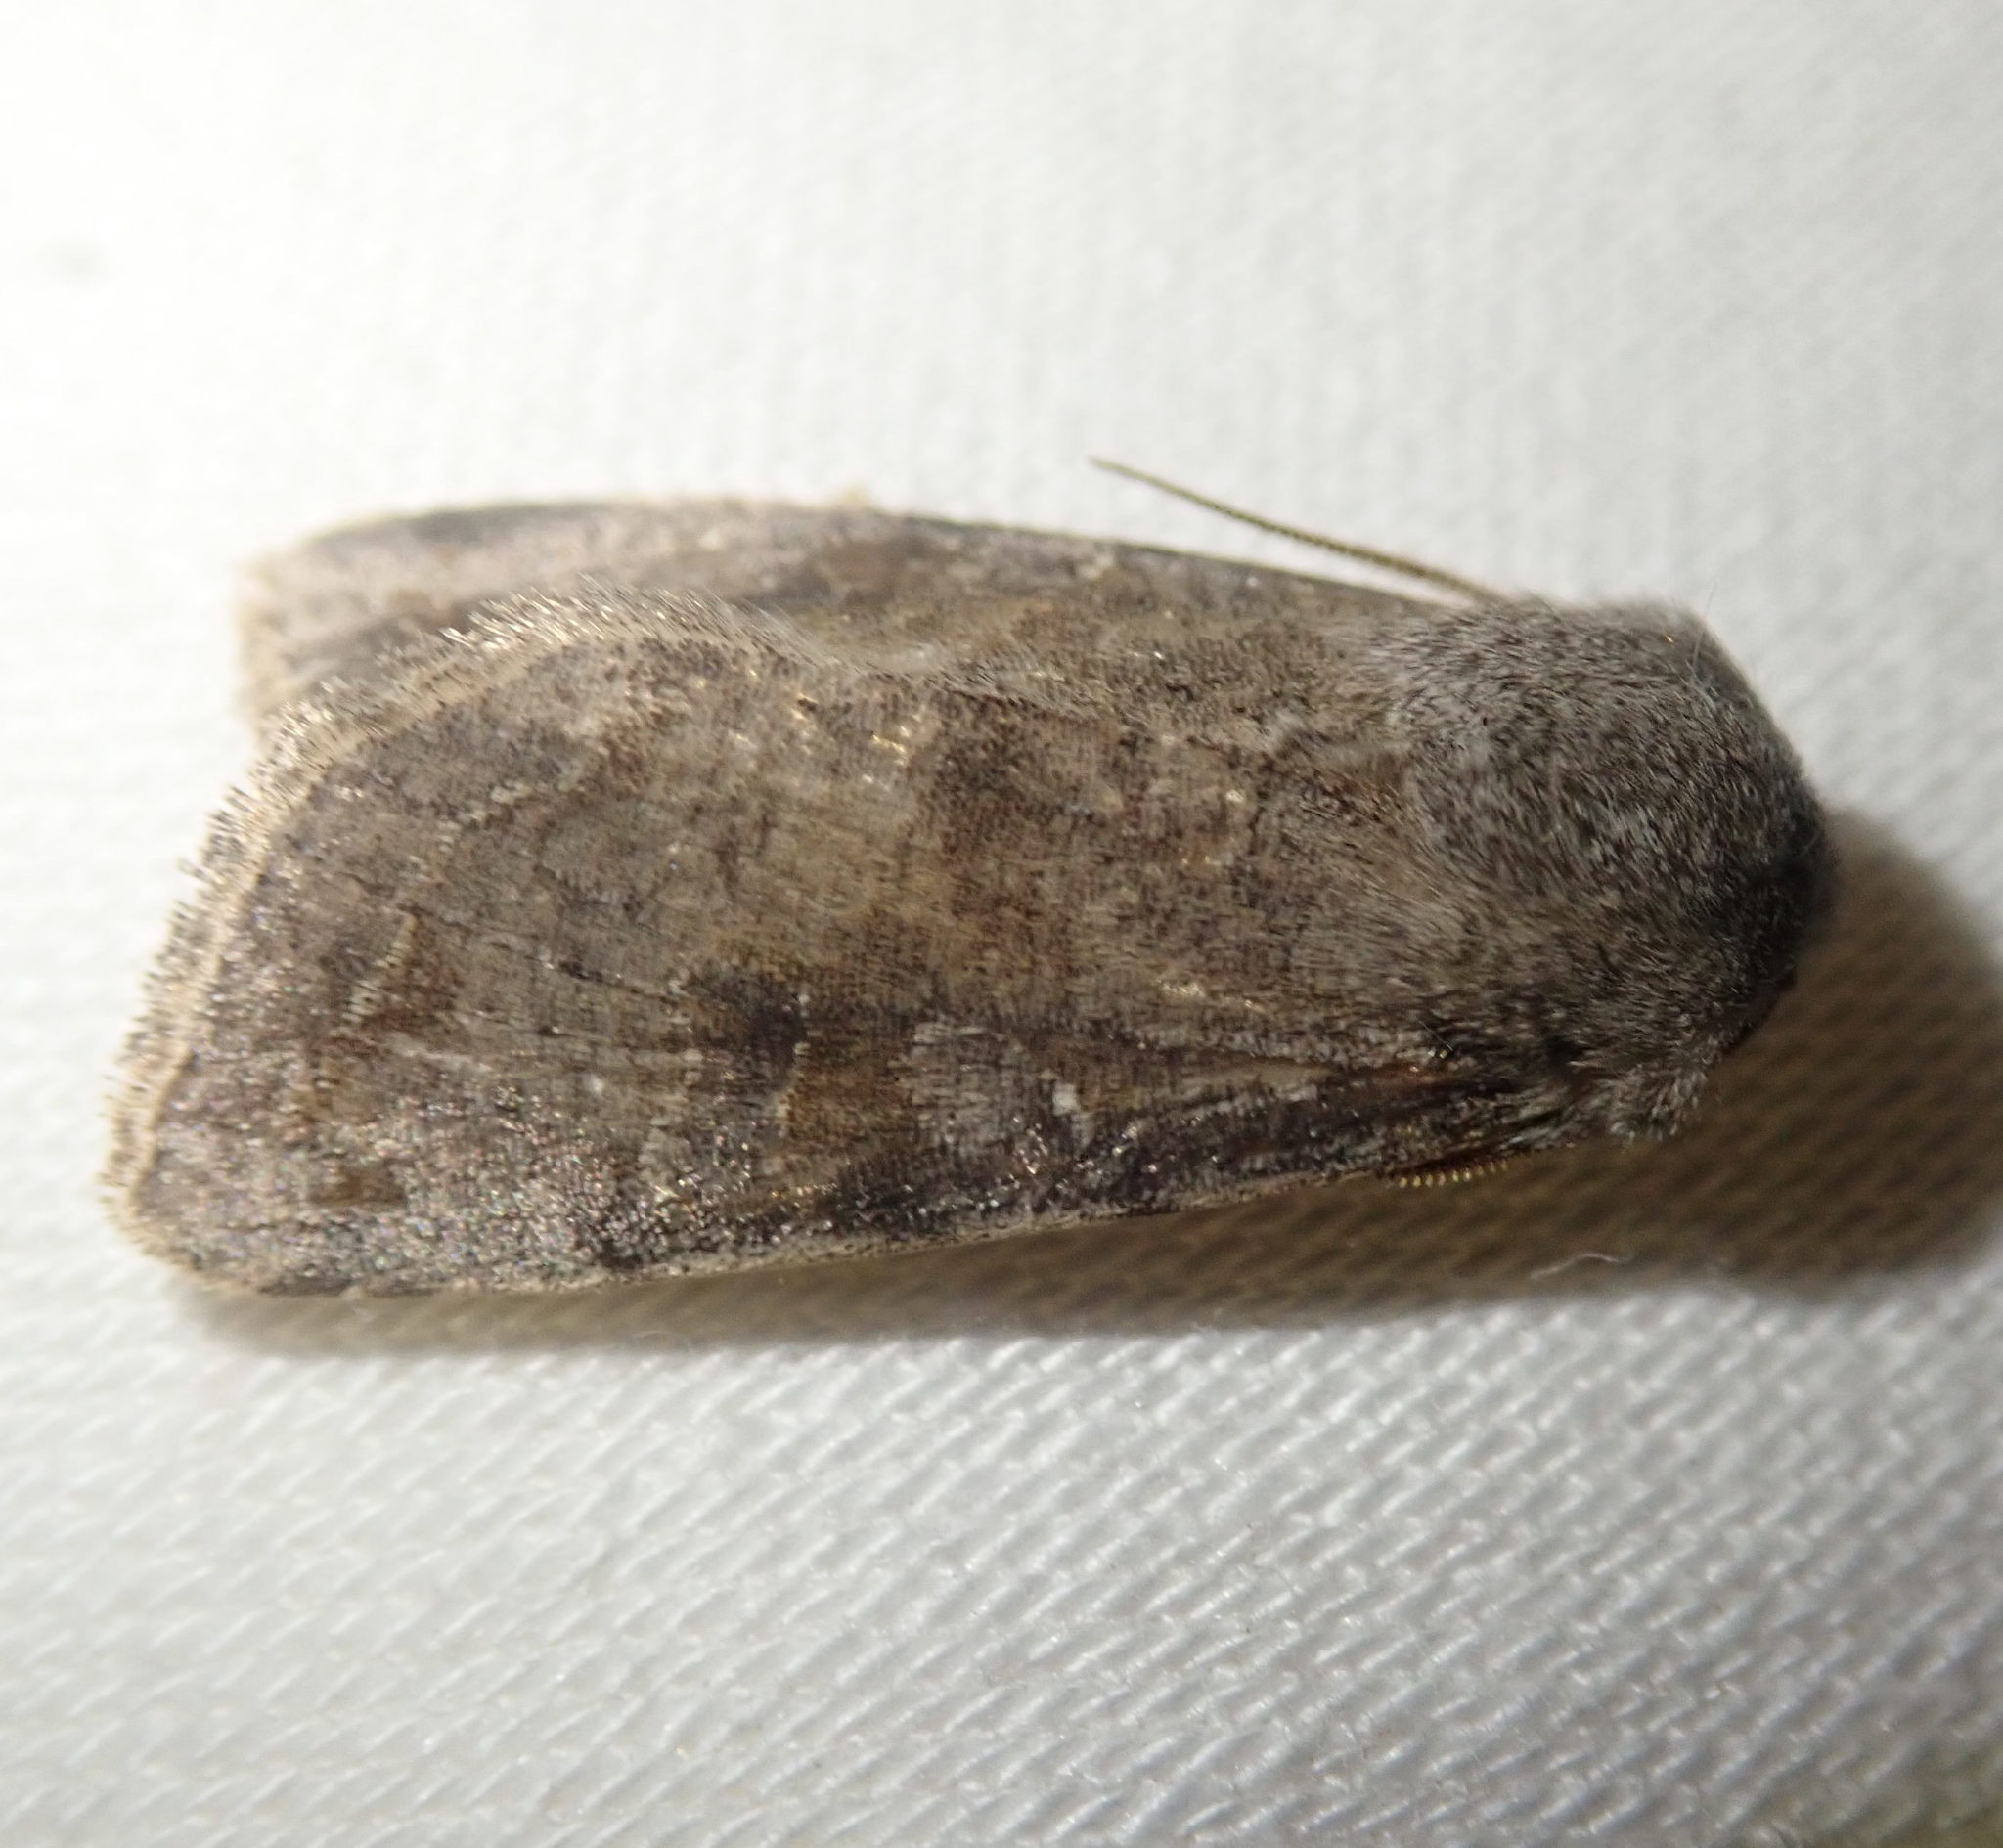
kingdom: Animalia
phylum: Arthropoda
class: Insecta
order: Lepidoptera
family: Noctuidae
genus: Orthosia
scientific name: Orthosia incerta
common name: Clouded drab
